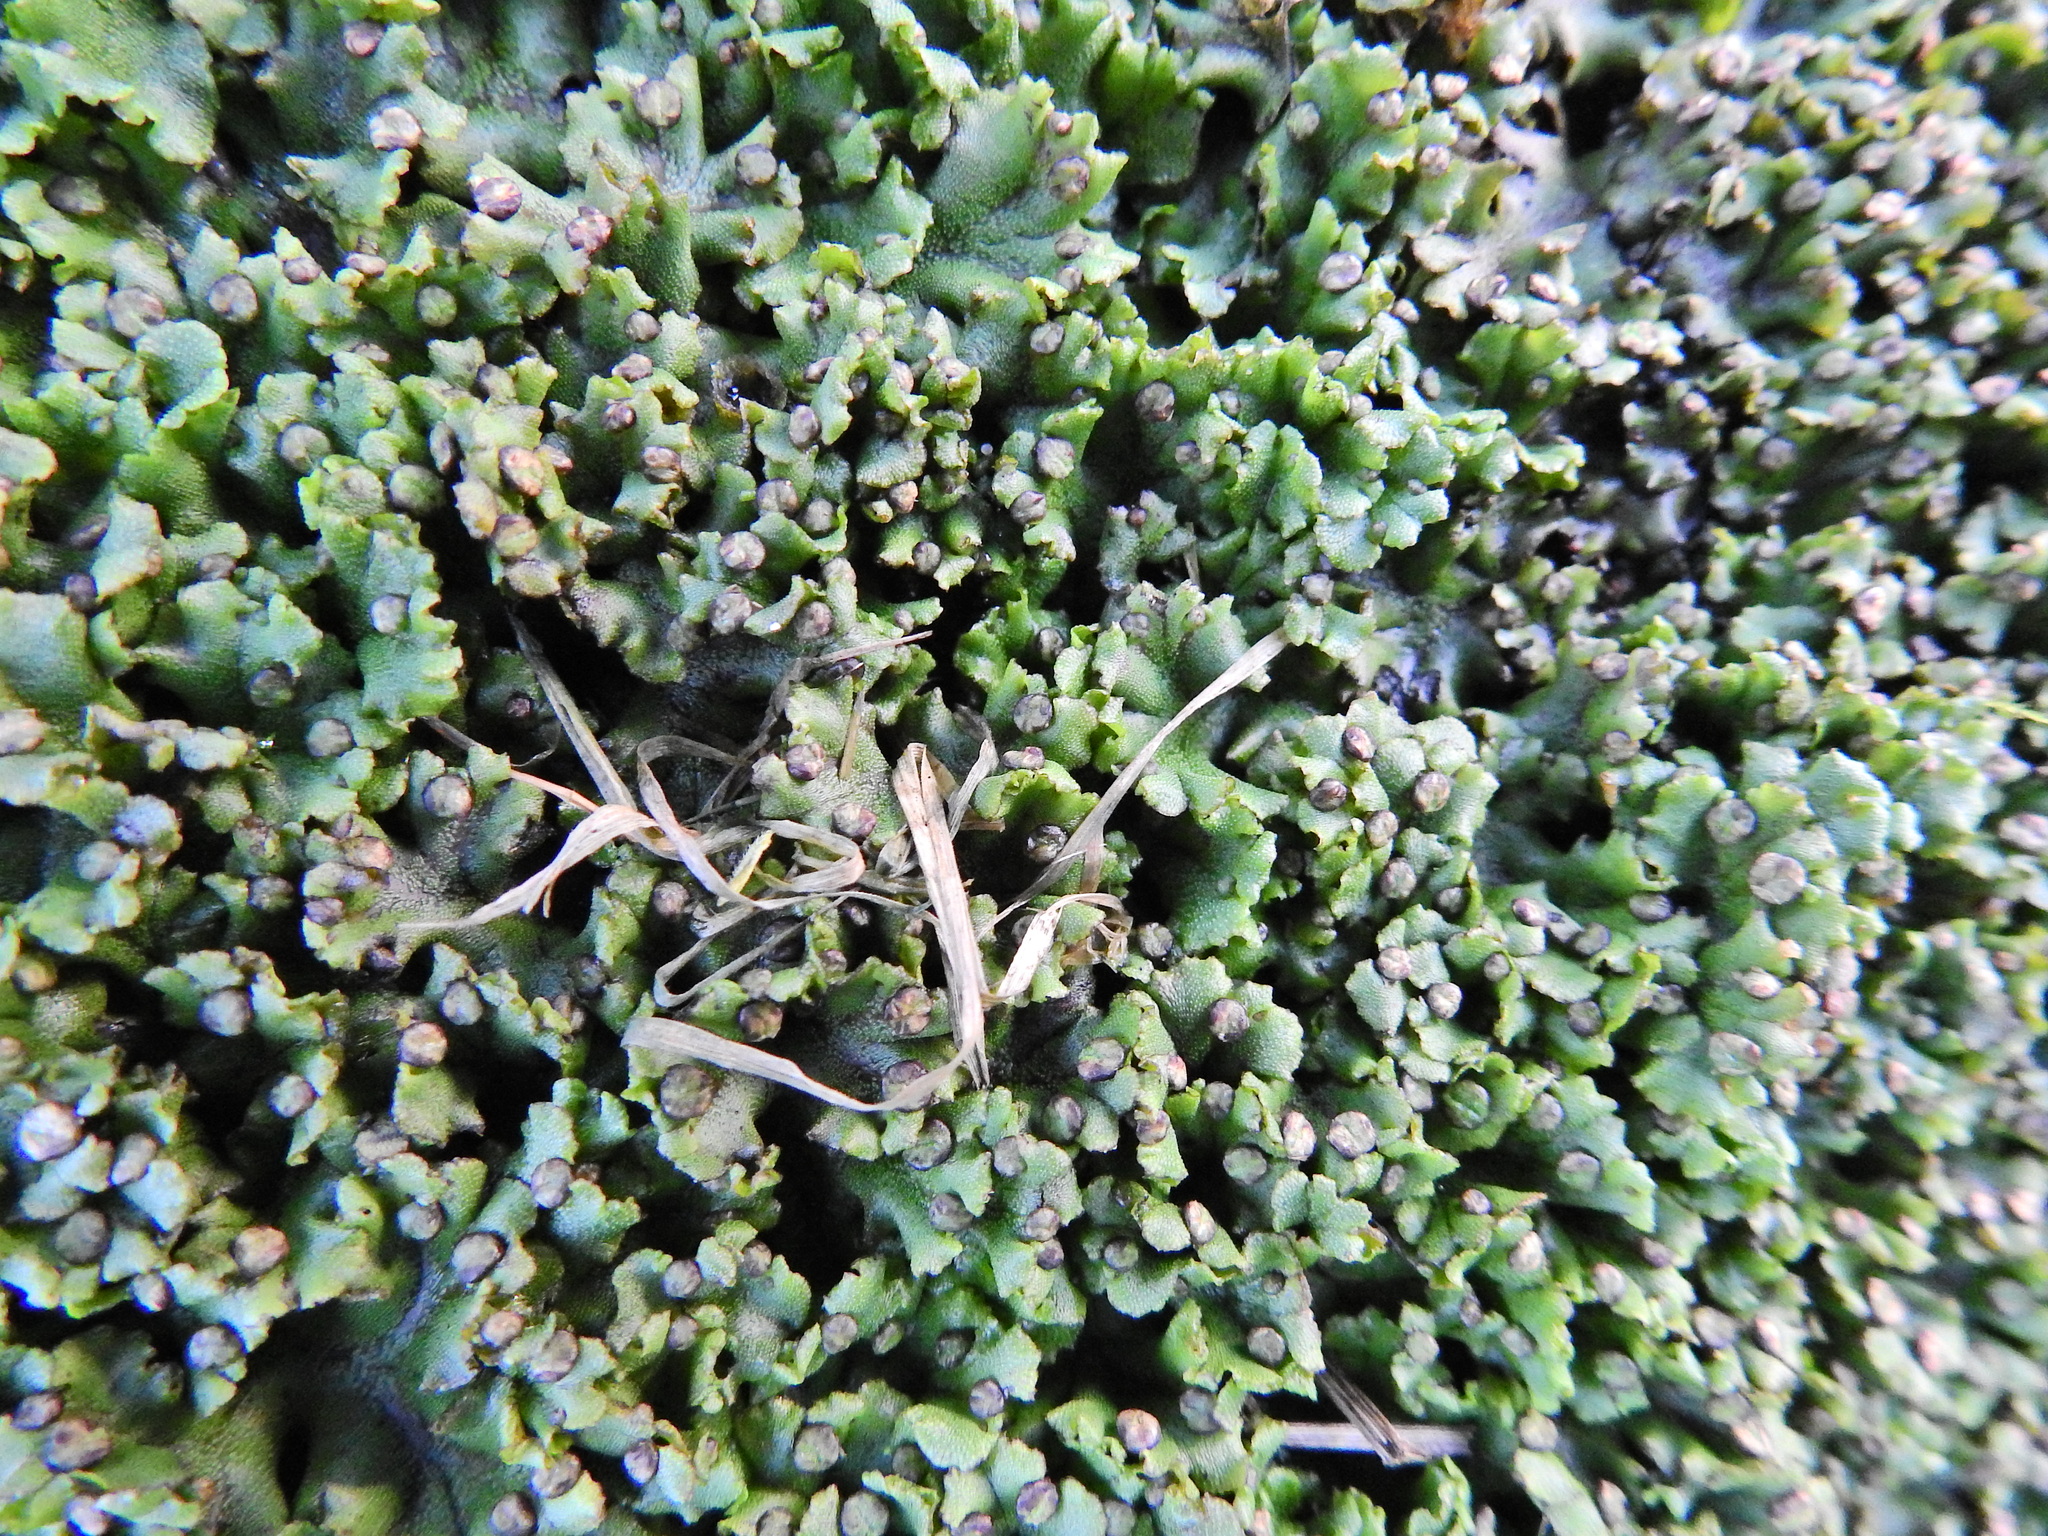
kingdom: Plantae
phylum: Marchantiophyta
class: Marchantiopsida
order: Marchantiales
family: Marchantiaceae
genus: Marchantia
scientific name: Marchantia polymorpha
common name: Common liverwort
